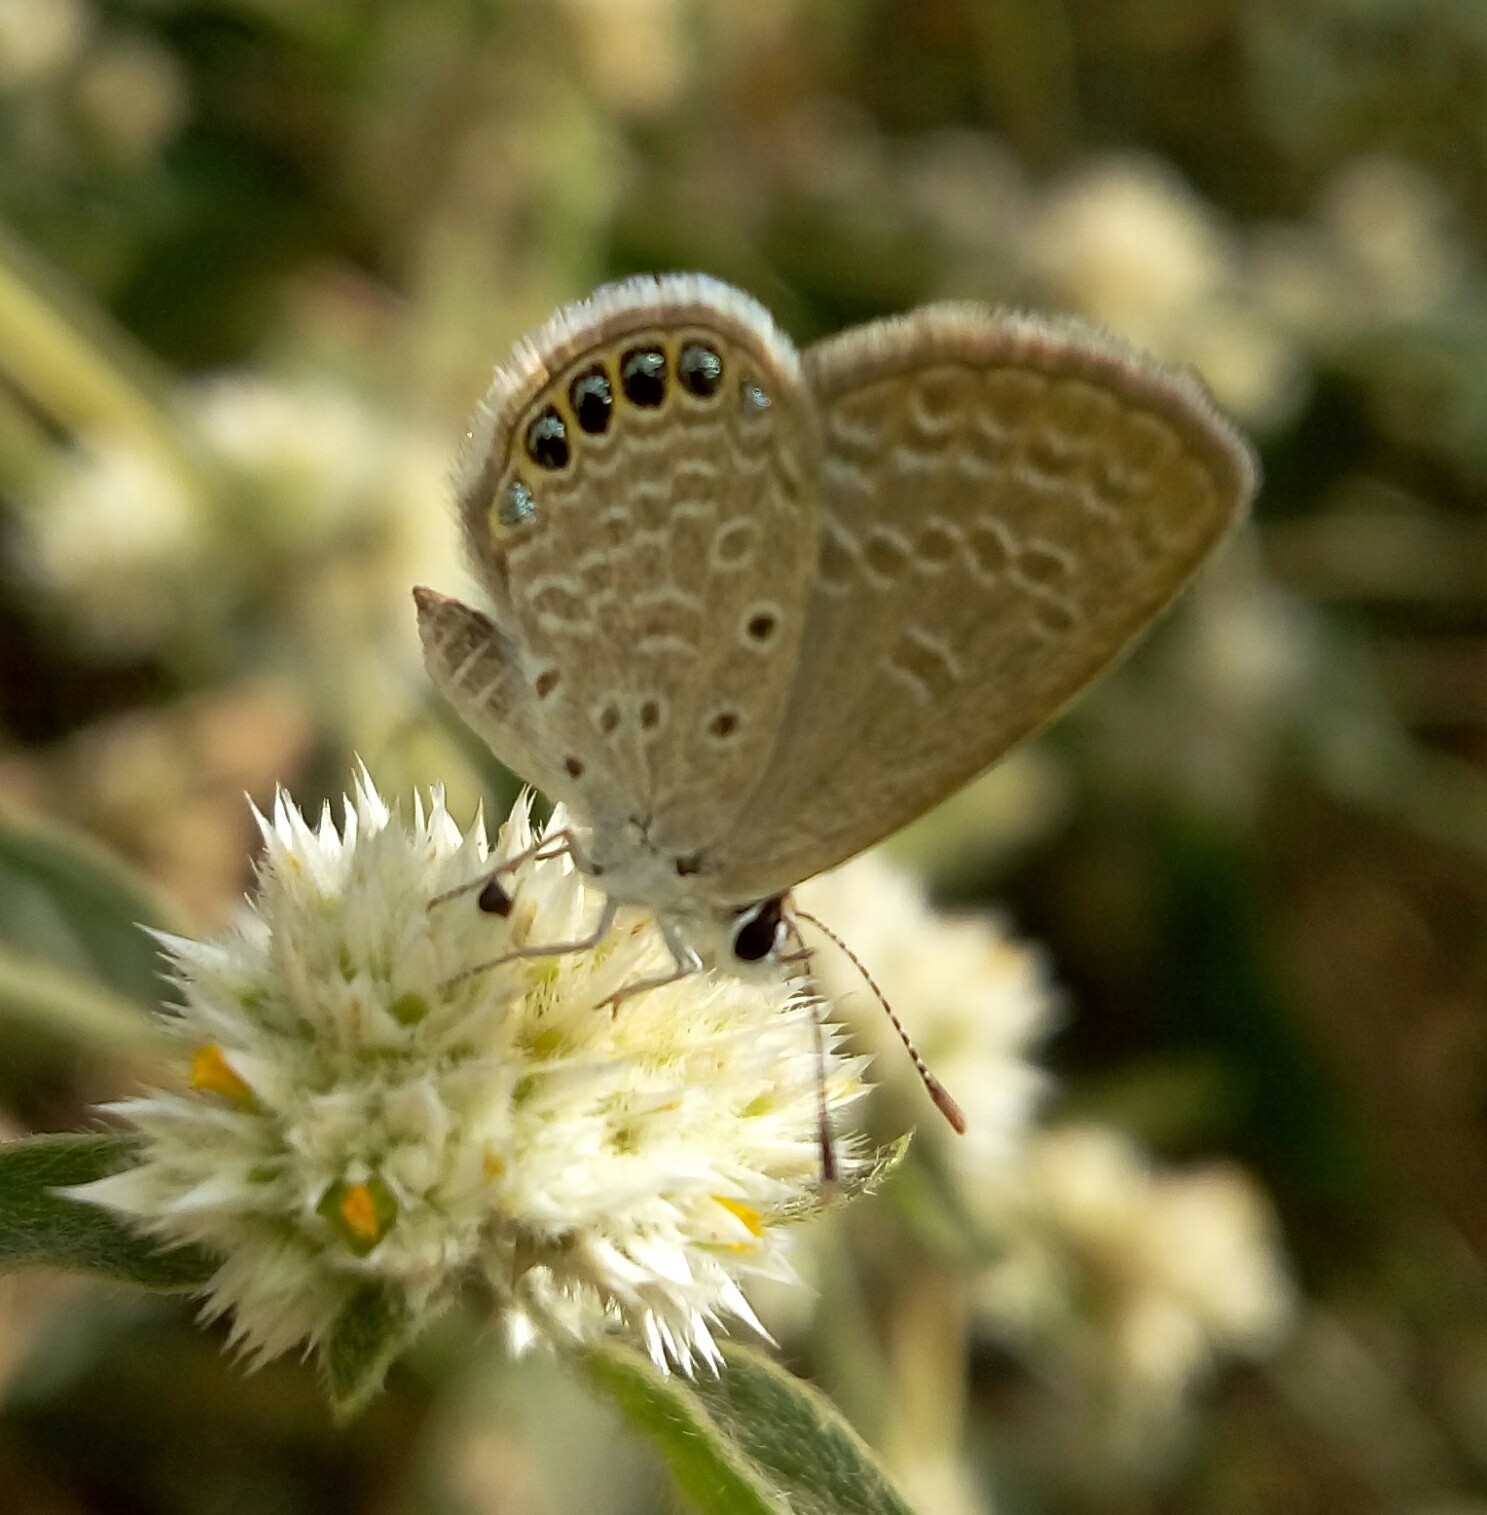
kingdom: Animalia
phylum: Arthropoda
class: Insecta
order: Lepidoptera
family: Lycaenidae
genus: Freyeria
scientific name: Freyeria putli
